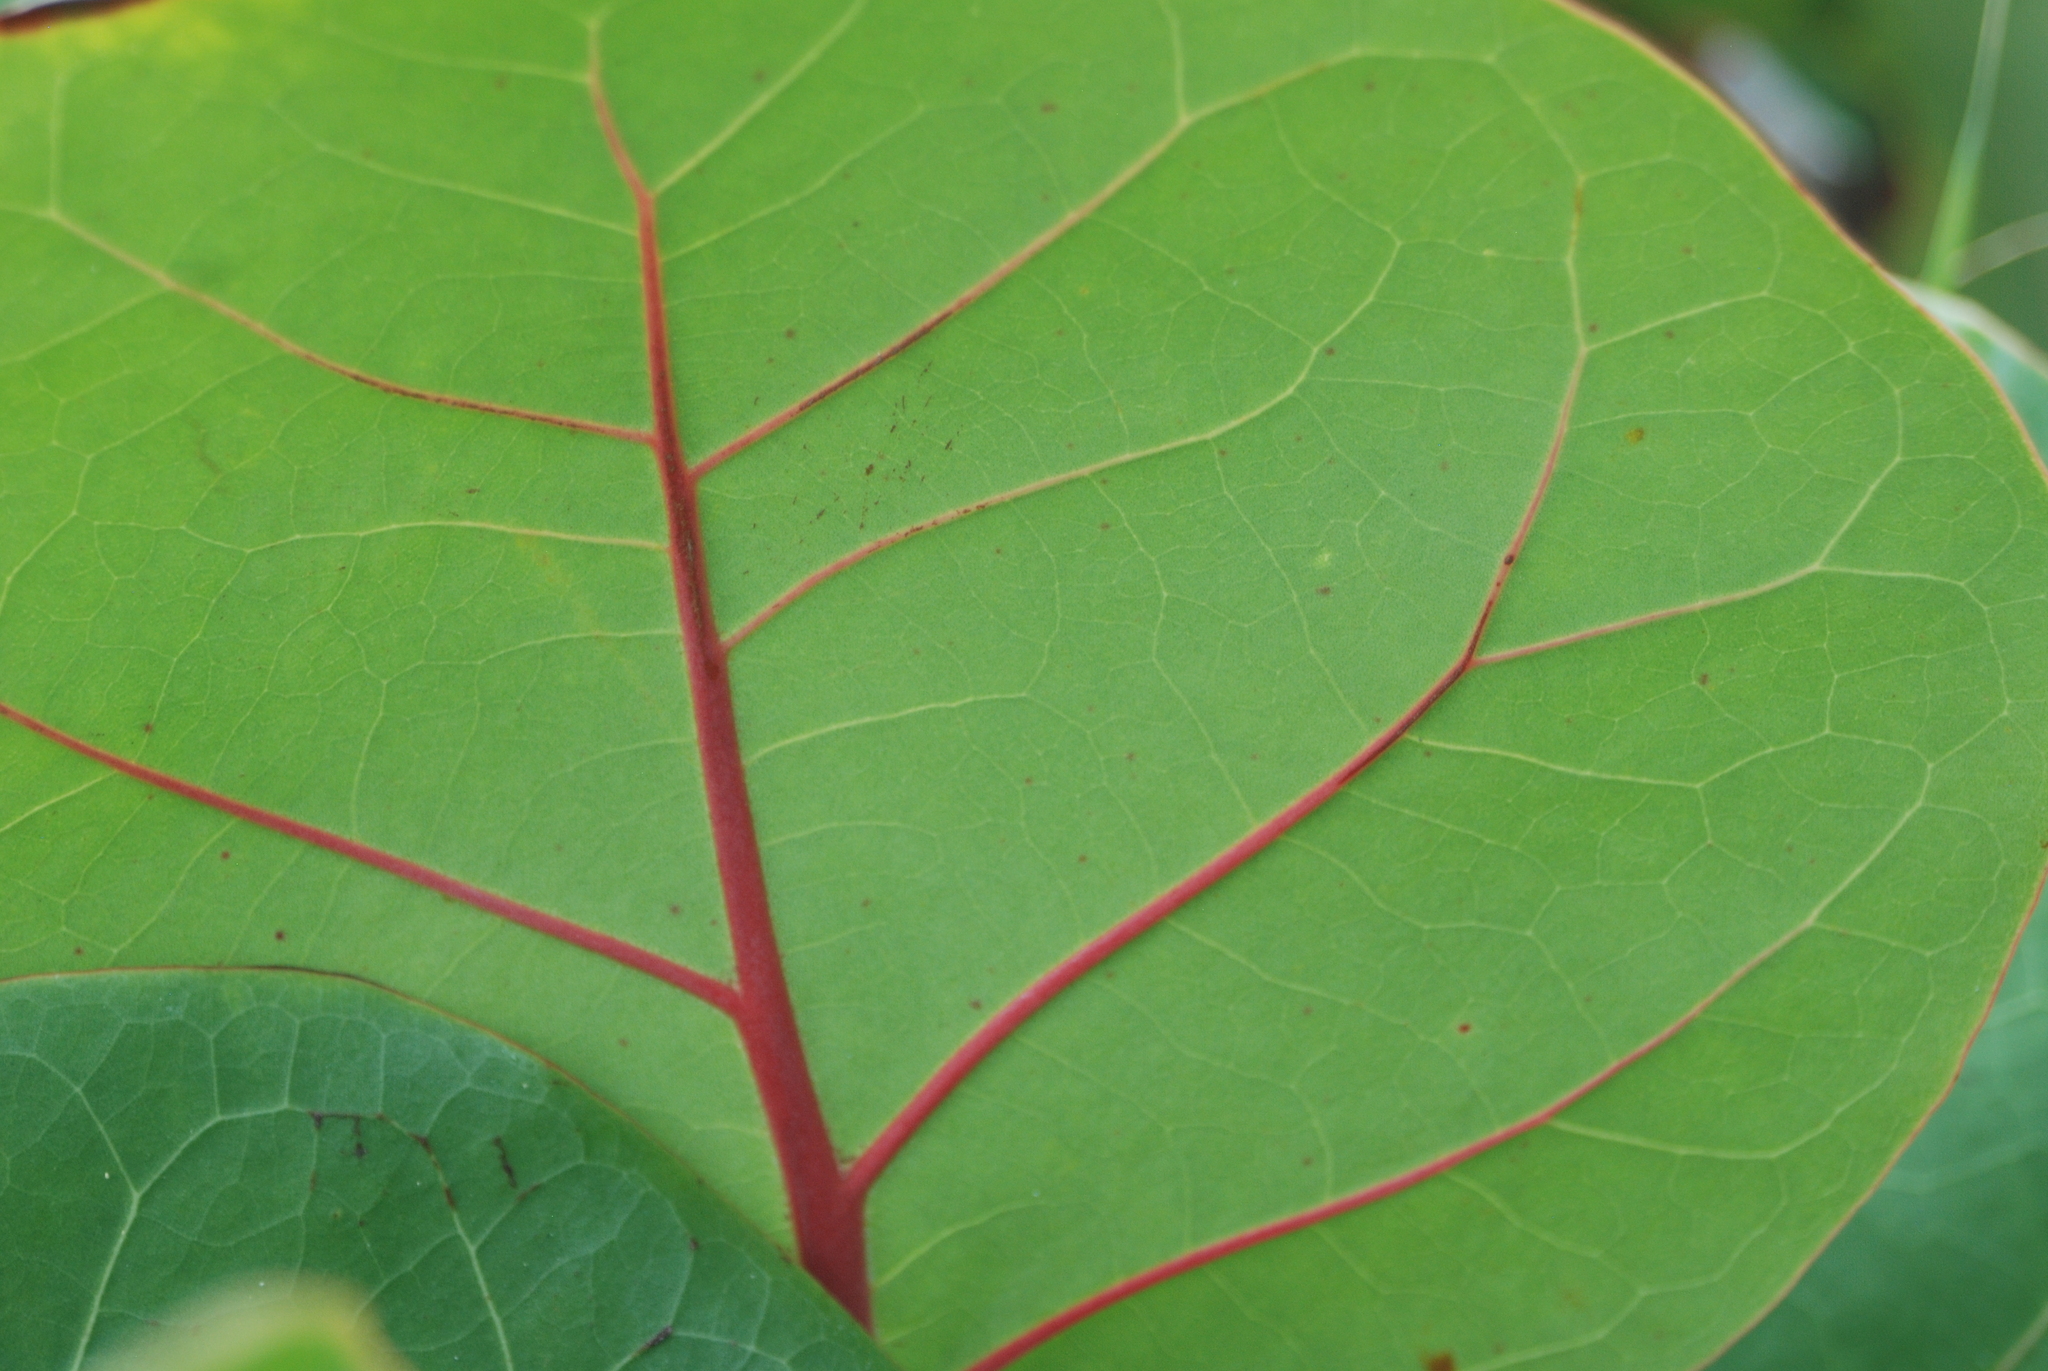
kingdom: Plantae
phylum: Tracheophyta
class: Magnoliopsida
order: Caryophyllales
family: Polygonaceae
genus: Coccoloba
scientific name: Coccoloba uvifera
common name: Seagrape
